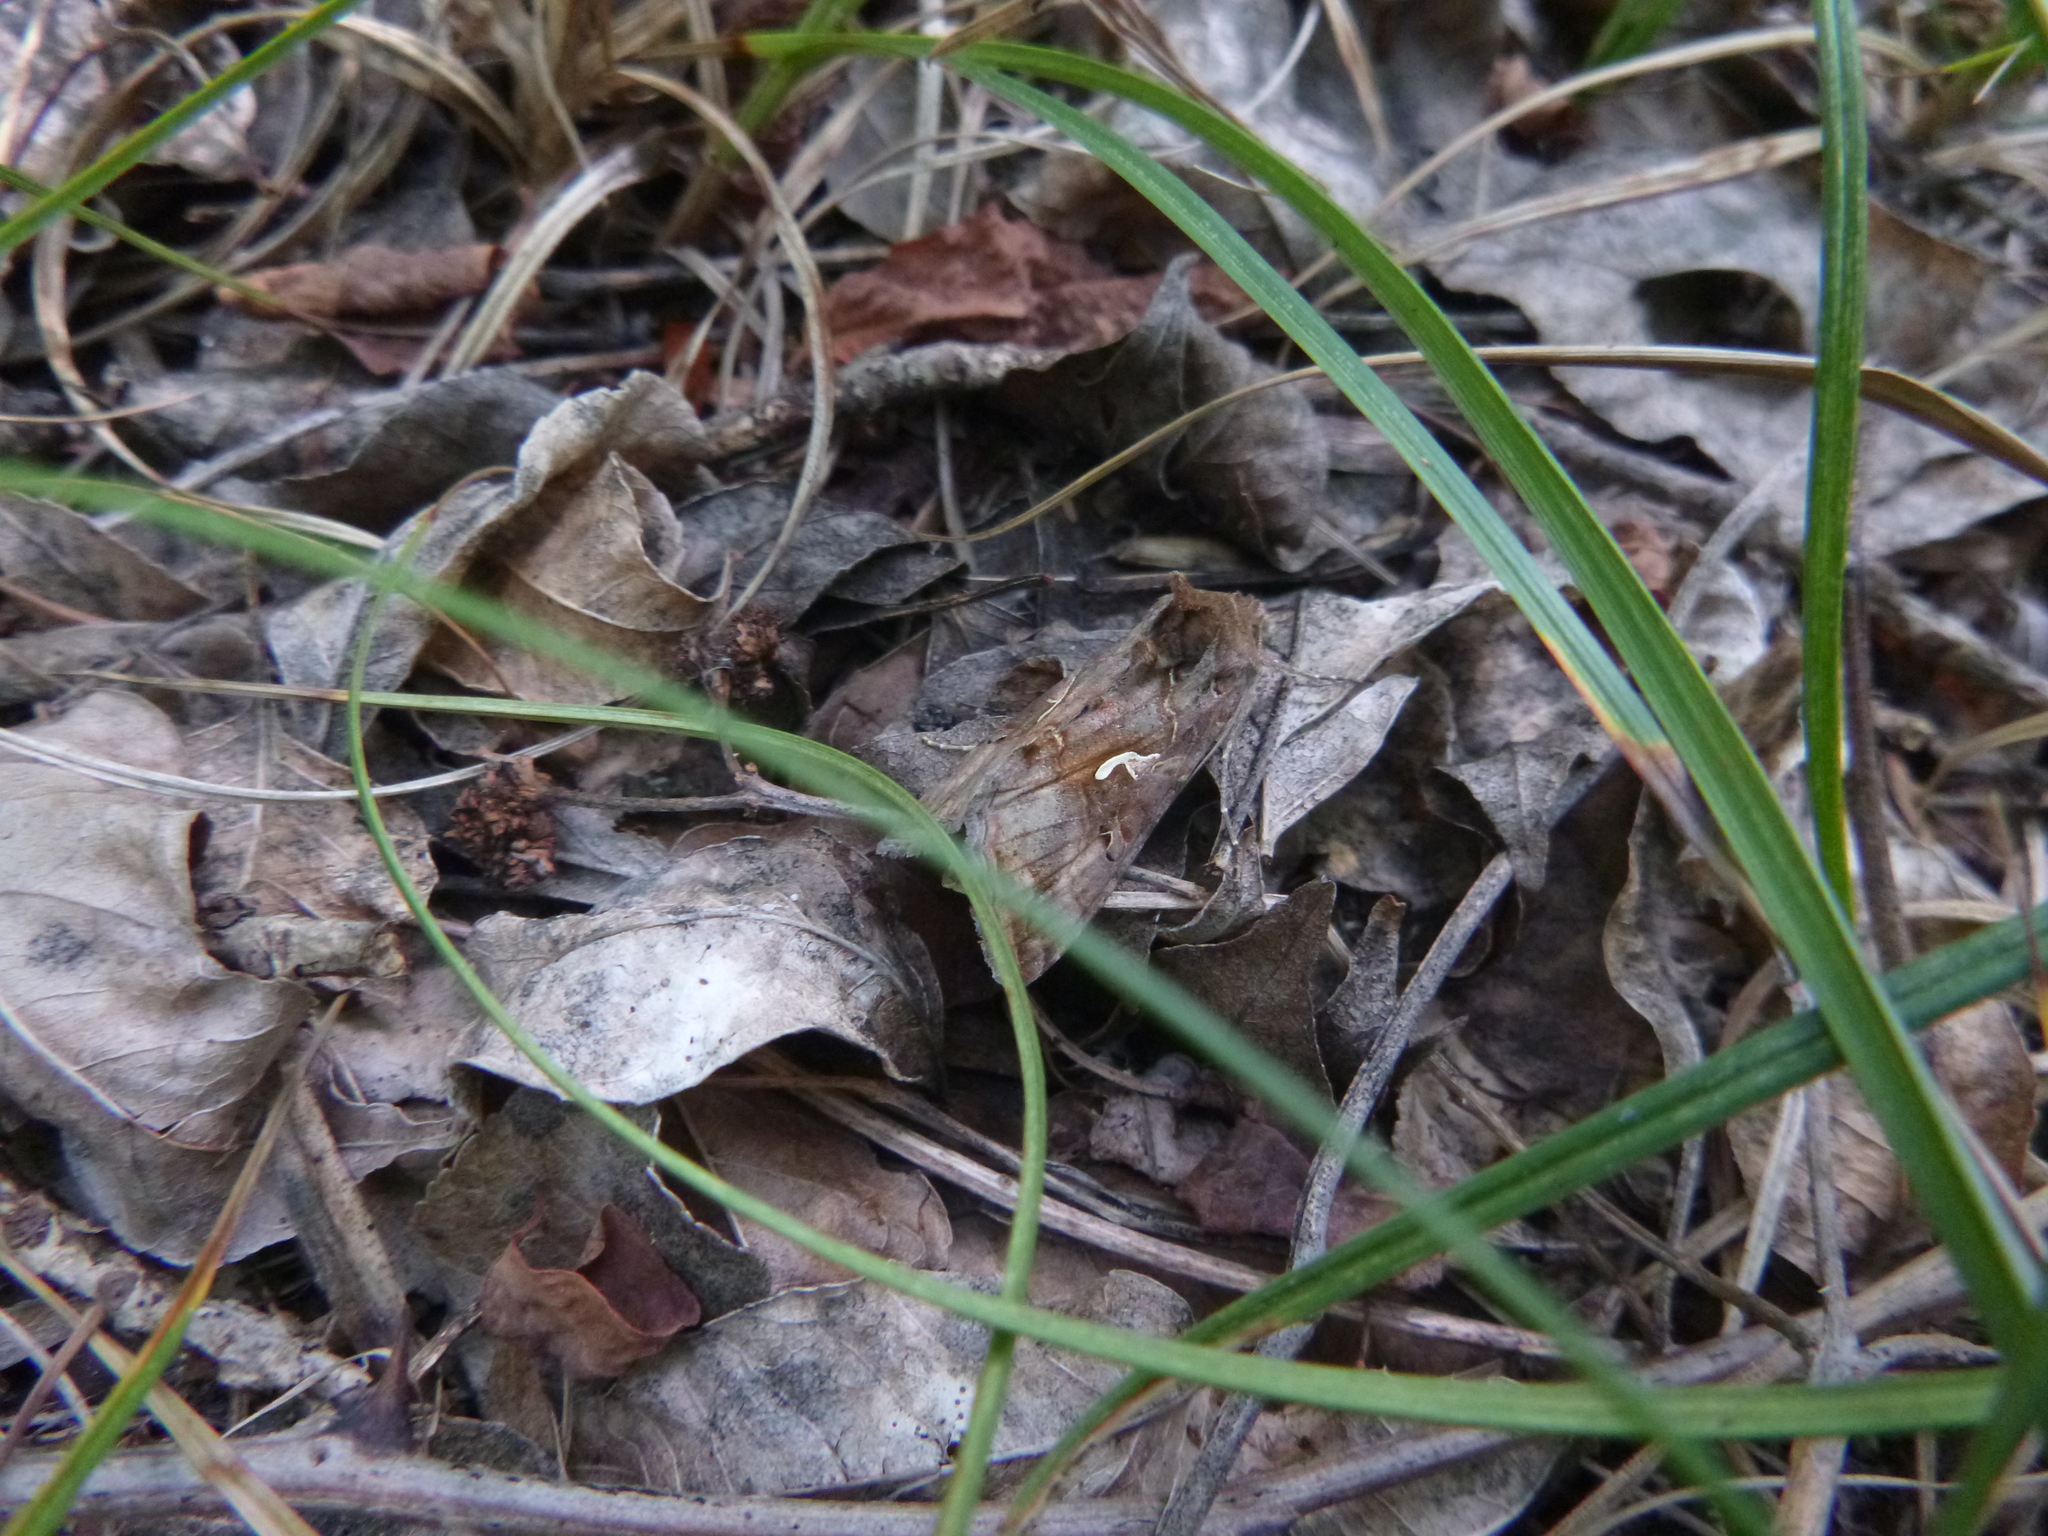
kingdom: Animalia
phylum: Arthropoda
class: Insecta
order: Lepidoptera
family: Noctuidae
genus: Autographa
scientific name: Autographa gamma
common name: Silver y
